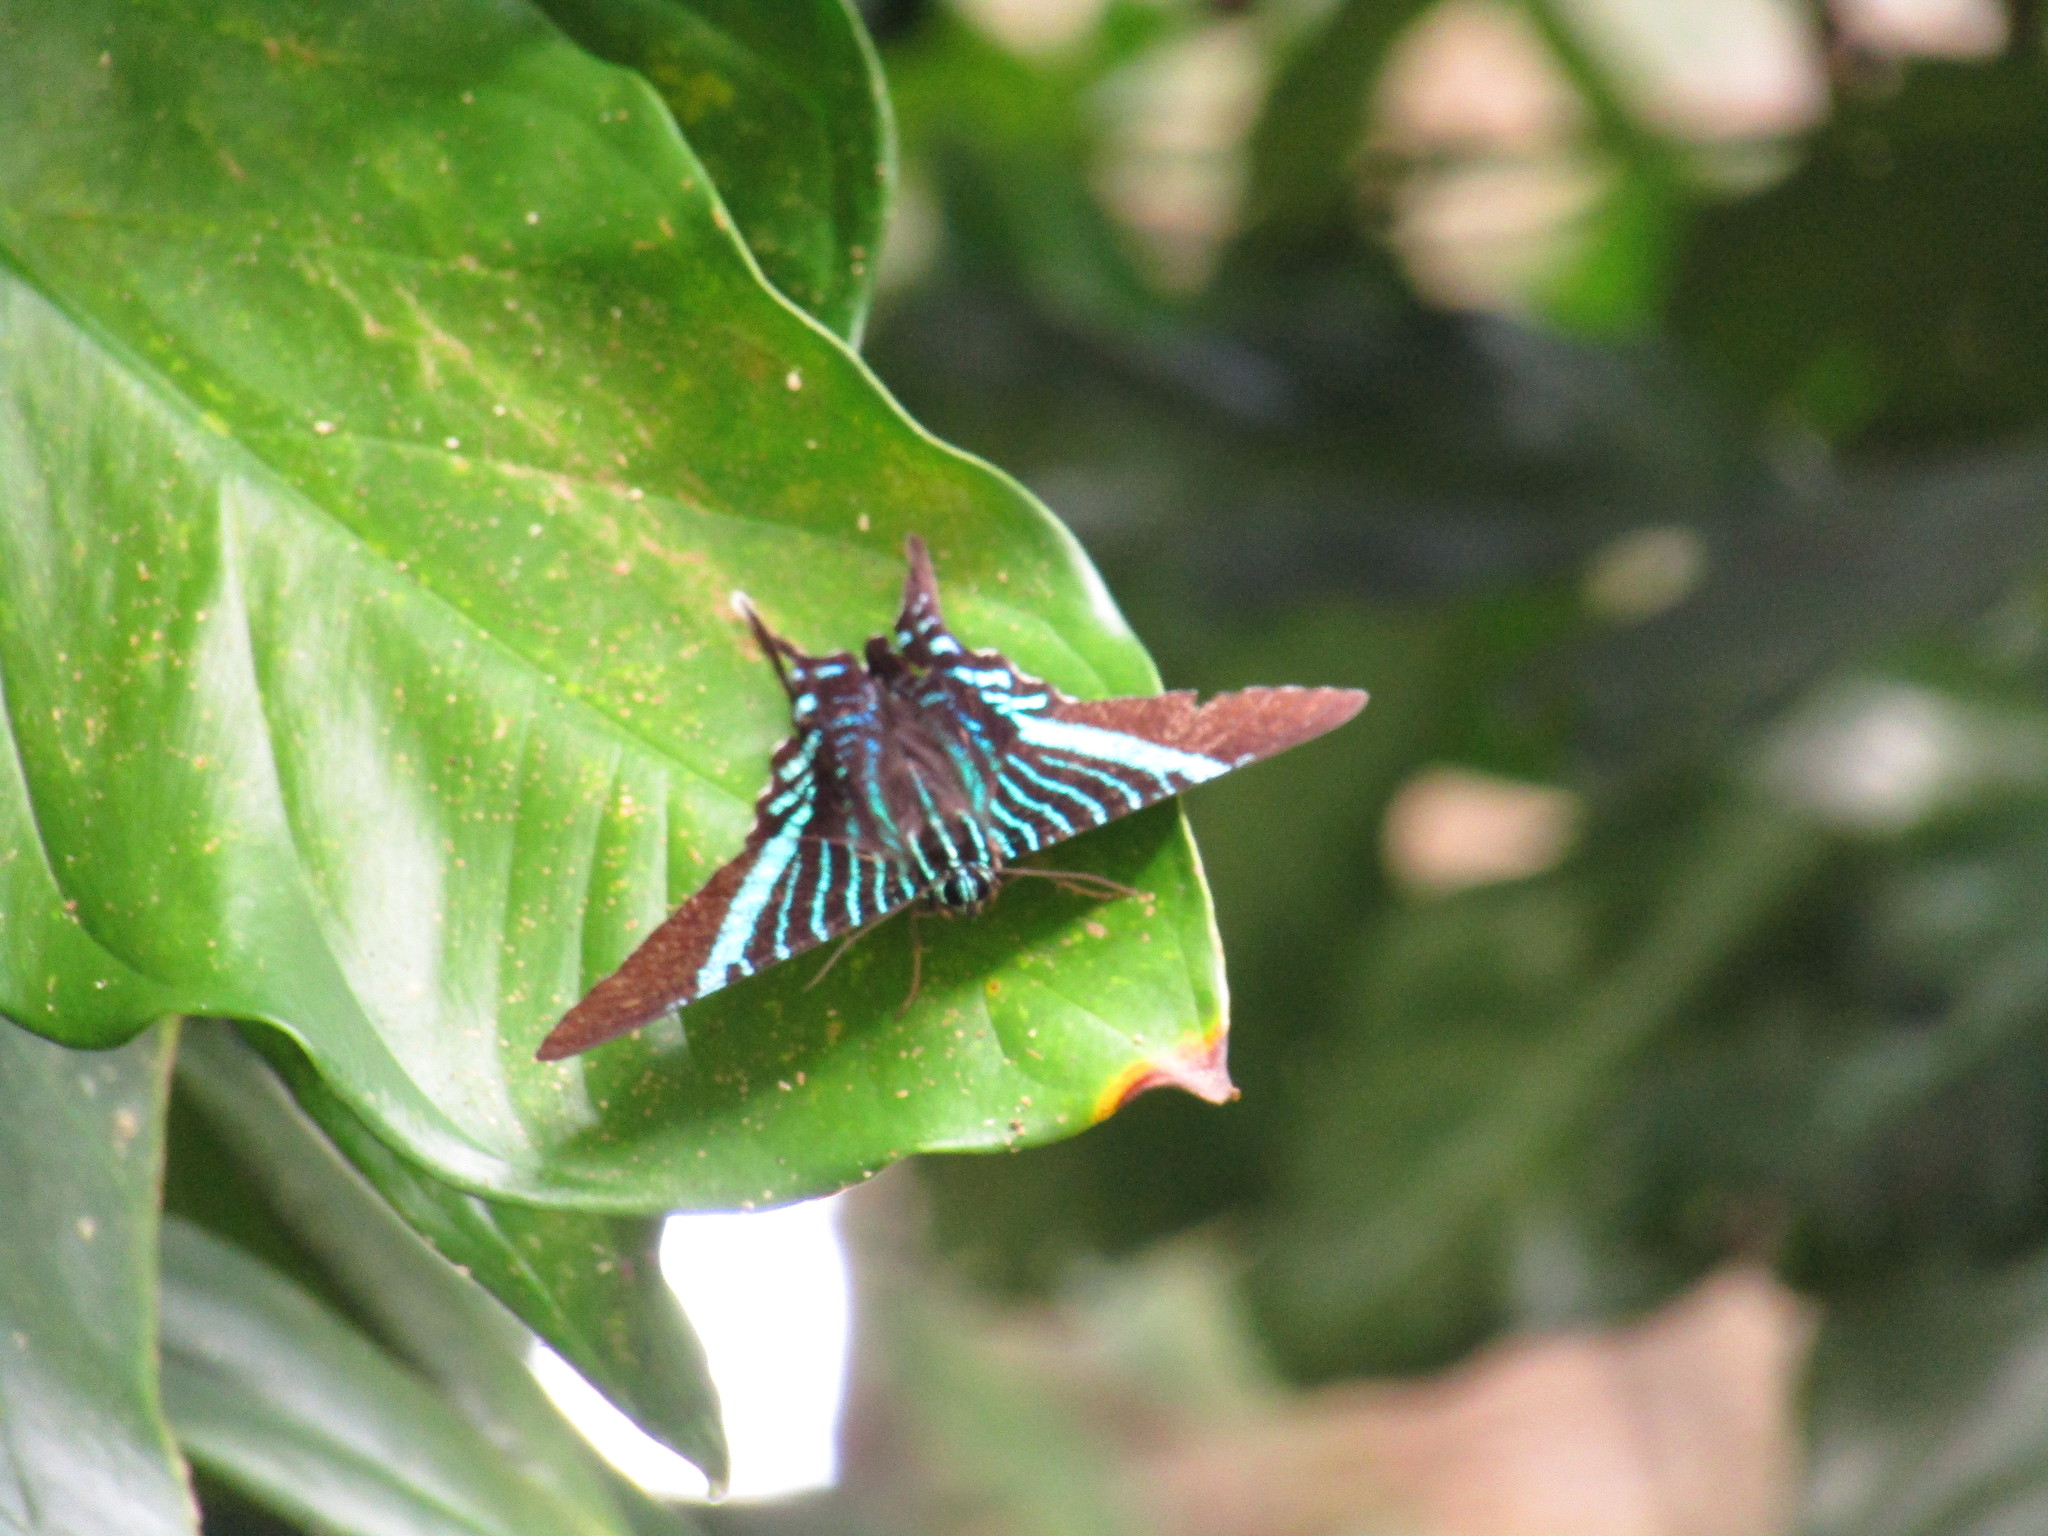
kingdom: Animalia
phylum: Arthropoda
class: Insecta
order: Lepidoptera
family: Uraniidae
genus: Urania
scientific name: Urania fulgens
